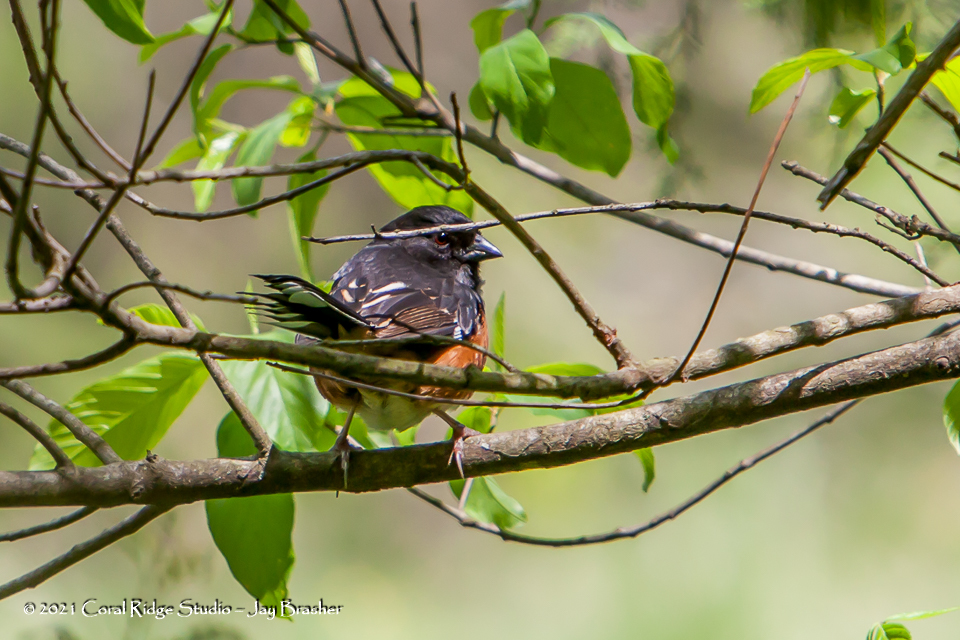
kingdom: Animalia
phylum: Chordata
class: Aves
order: Passeriformes
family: Passerellidae
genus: Pipilo
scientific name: Pipilo erythrophthalmus
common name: Eastern towhee
